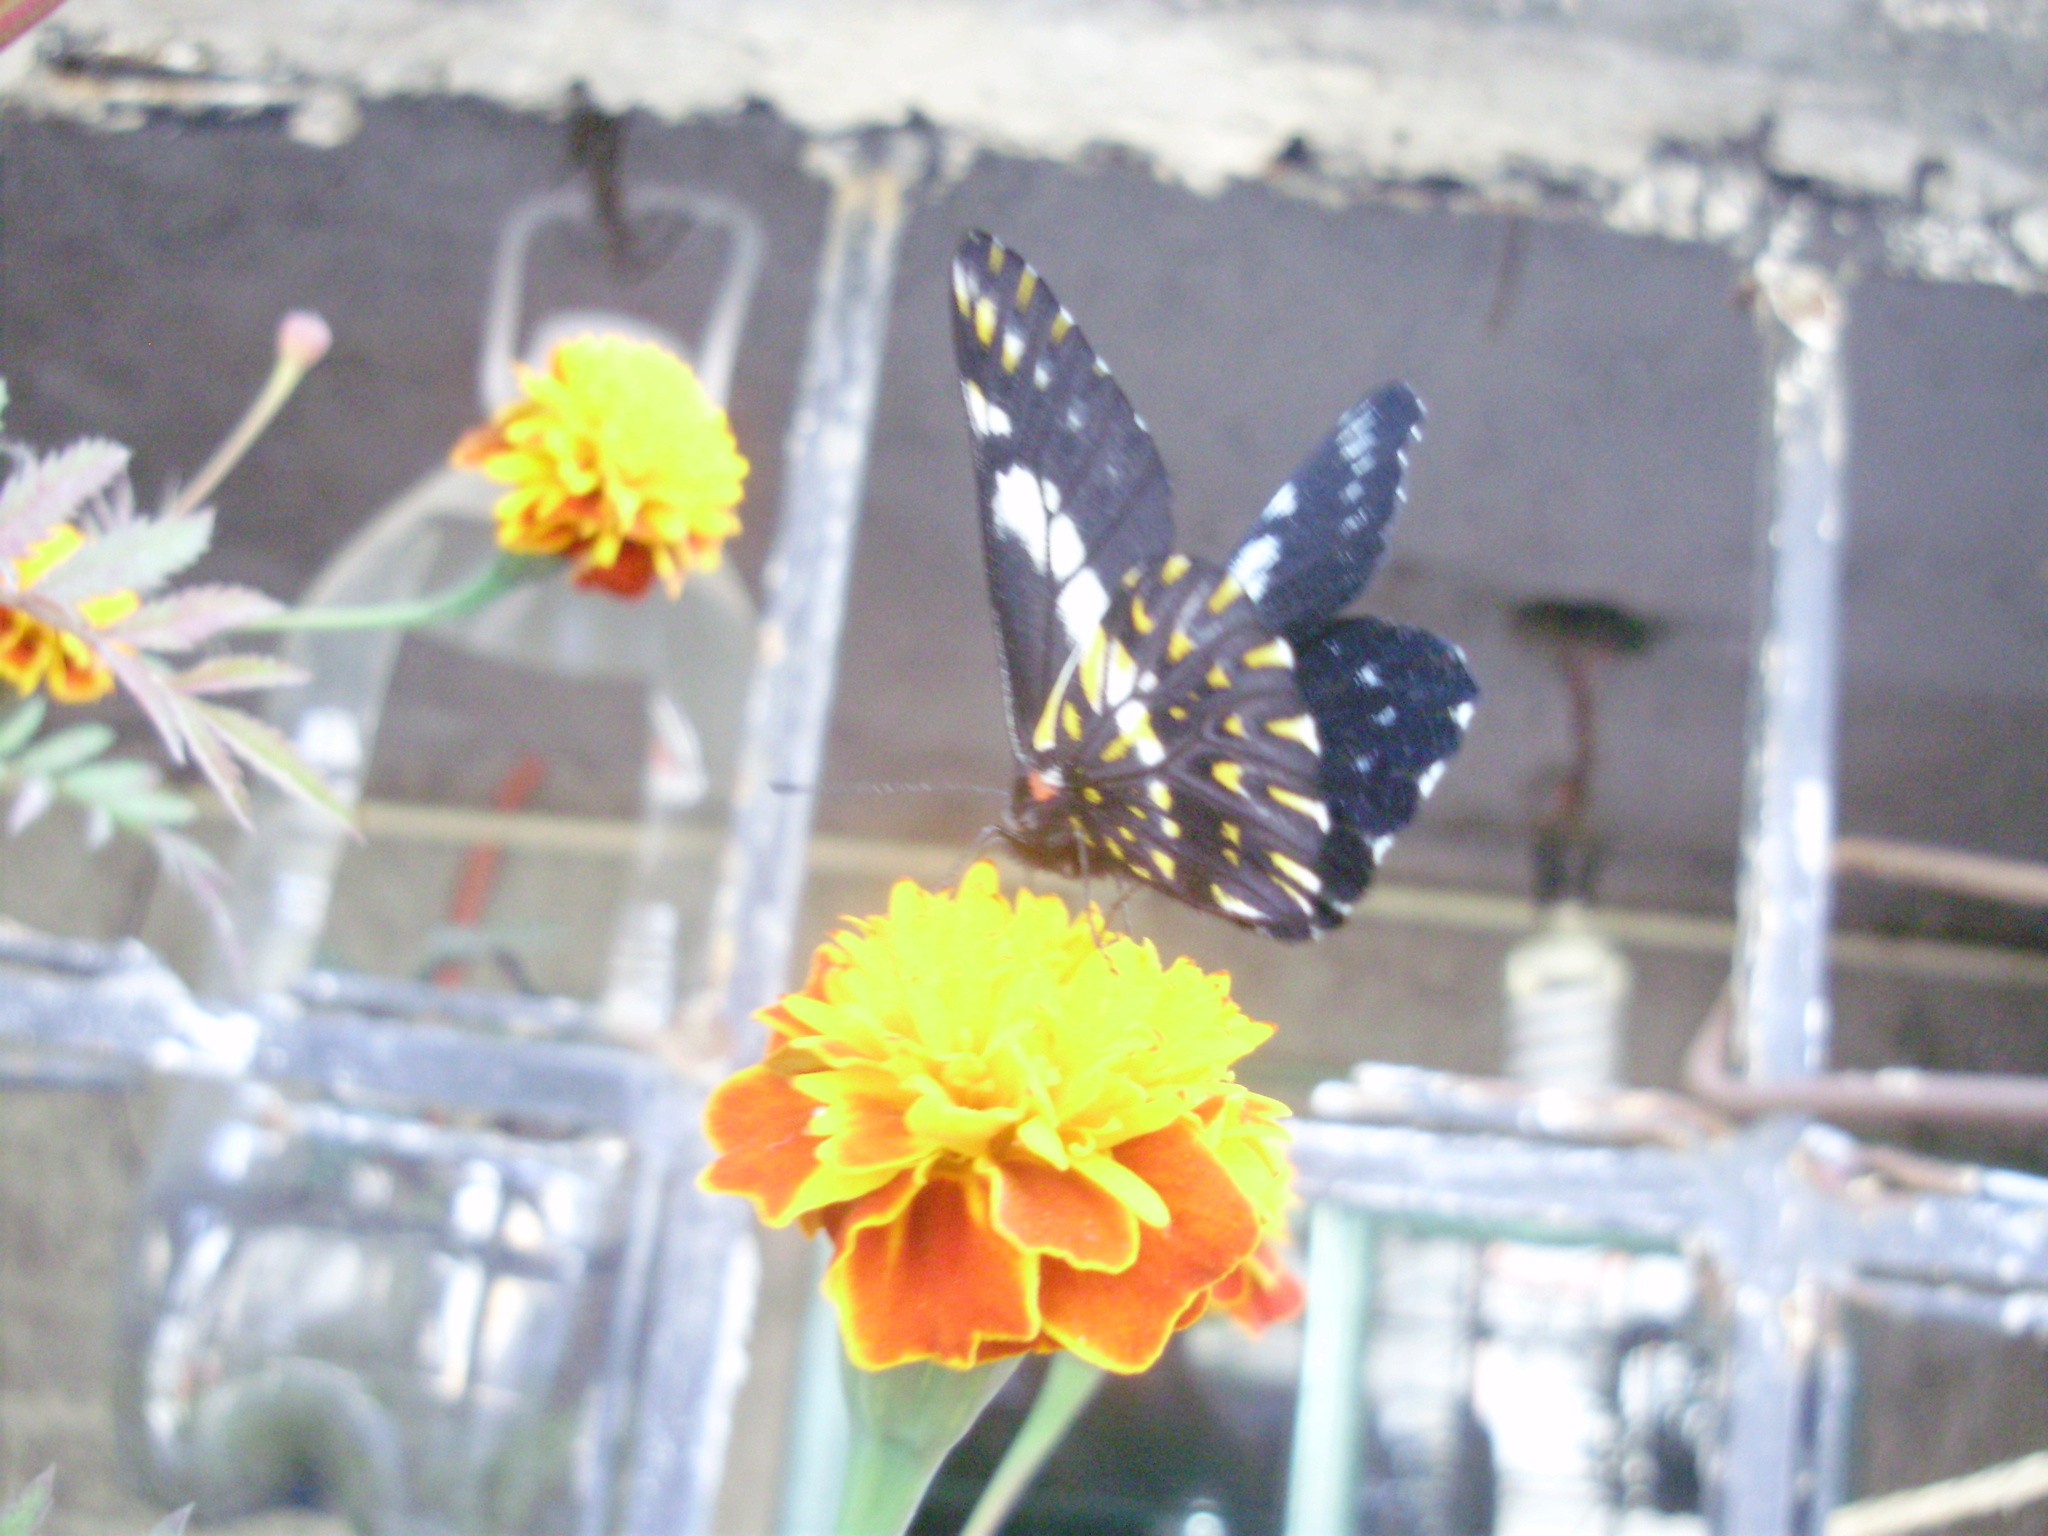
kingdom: Animalia
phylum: Arthropoda
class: Insecta
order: Lepidoptera
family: Pieridae
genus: Archonias
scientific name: Archonias teutila
